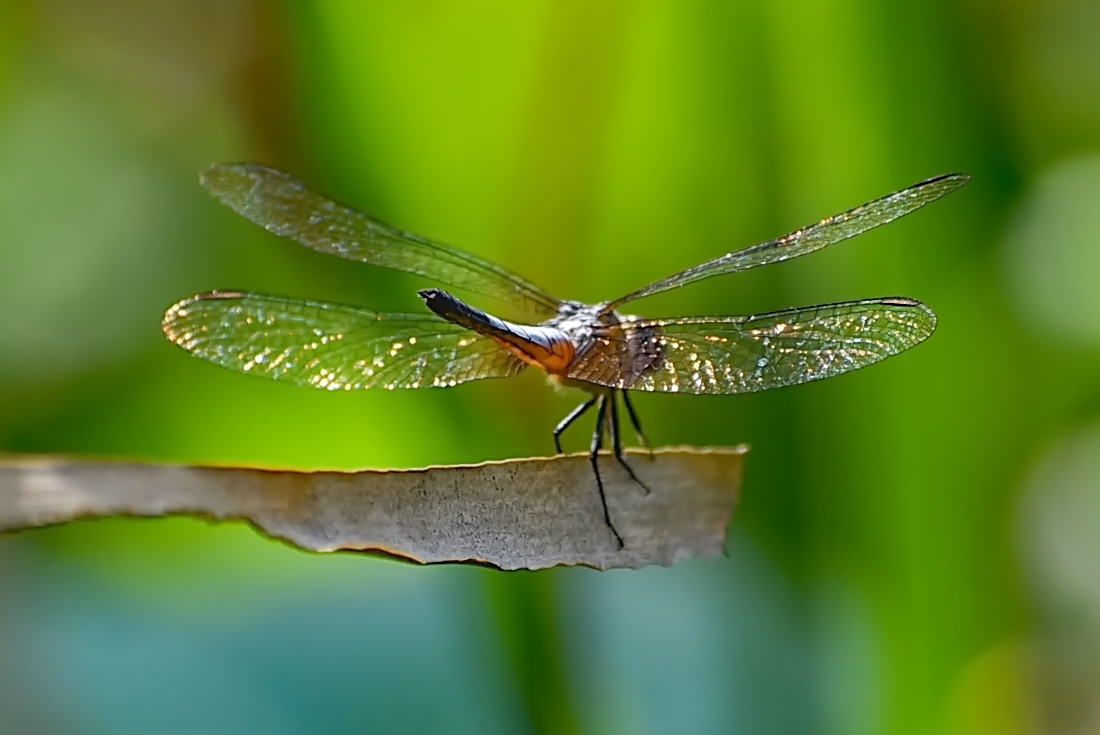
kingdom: Animalia
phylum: Arthropoda
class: Insecta
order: Odonata
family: Libellulidae
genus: Brachydiplax
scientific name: Brachydiplax chalybea
